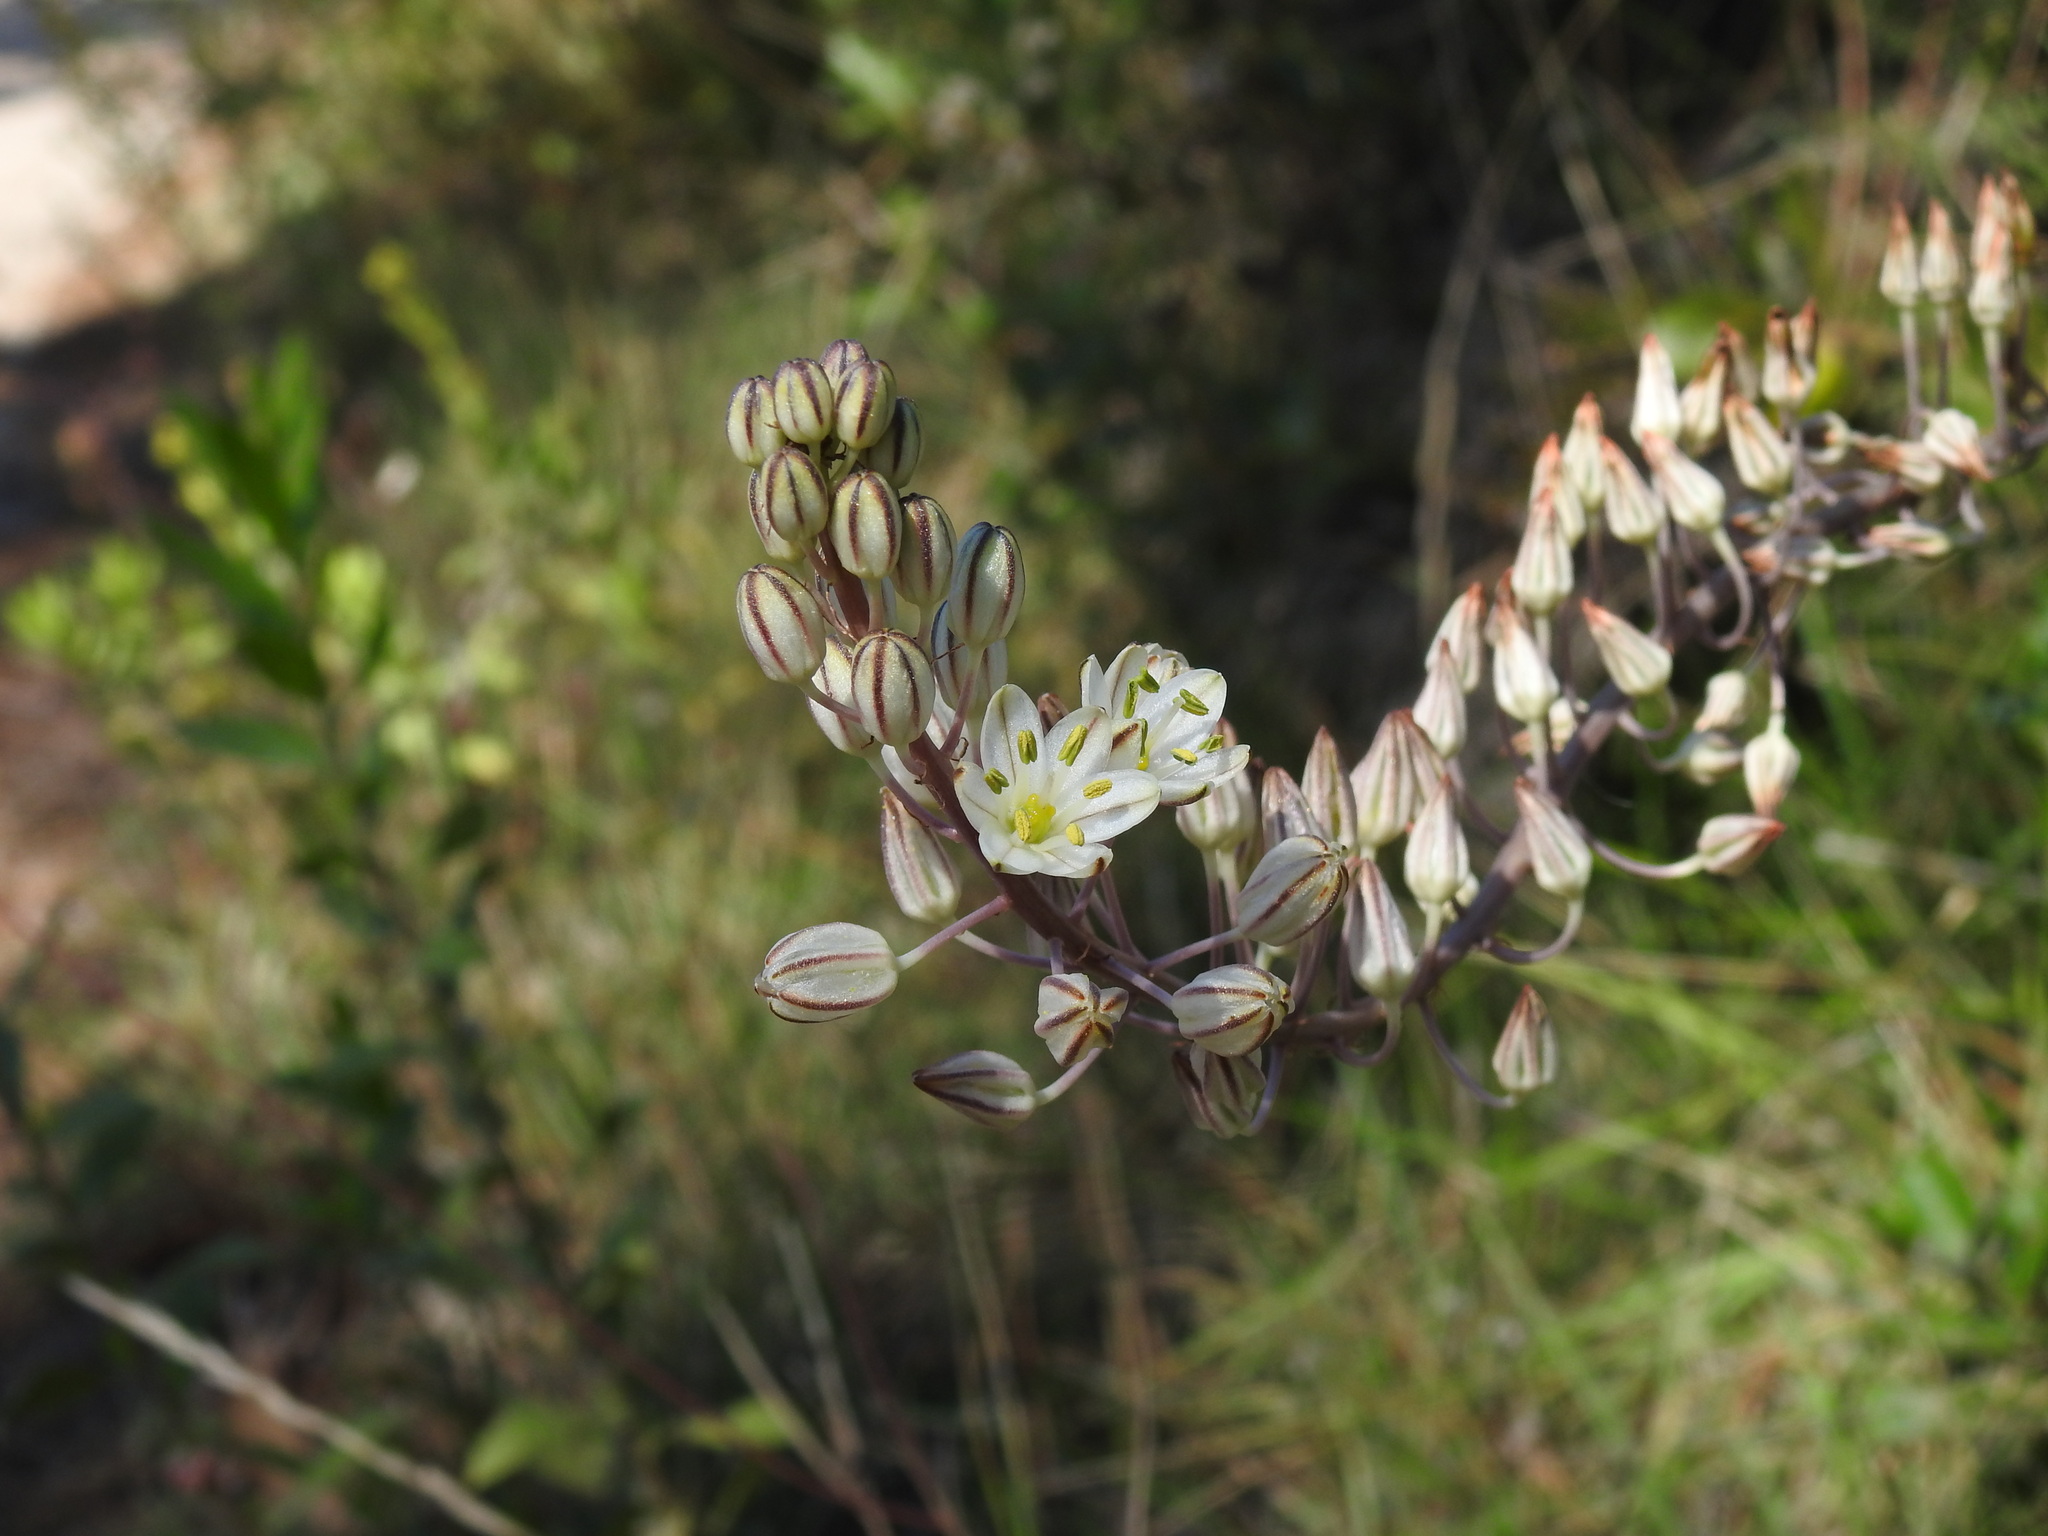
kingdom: Plantae
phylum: Tracheophyta
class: Liliopsida
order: Asparagales
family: Asparagaceae
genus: Drimia
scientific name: Drimia maritima
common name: Maritime squill
